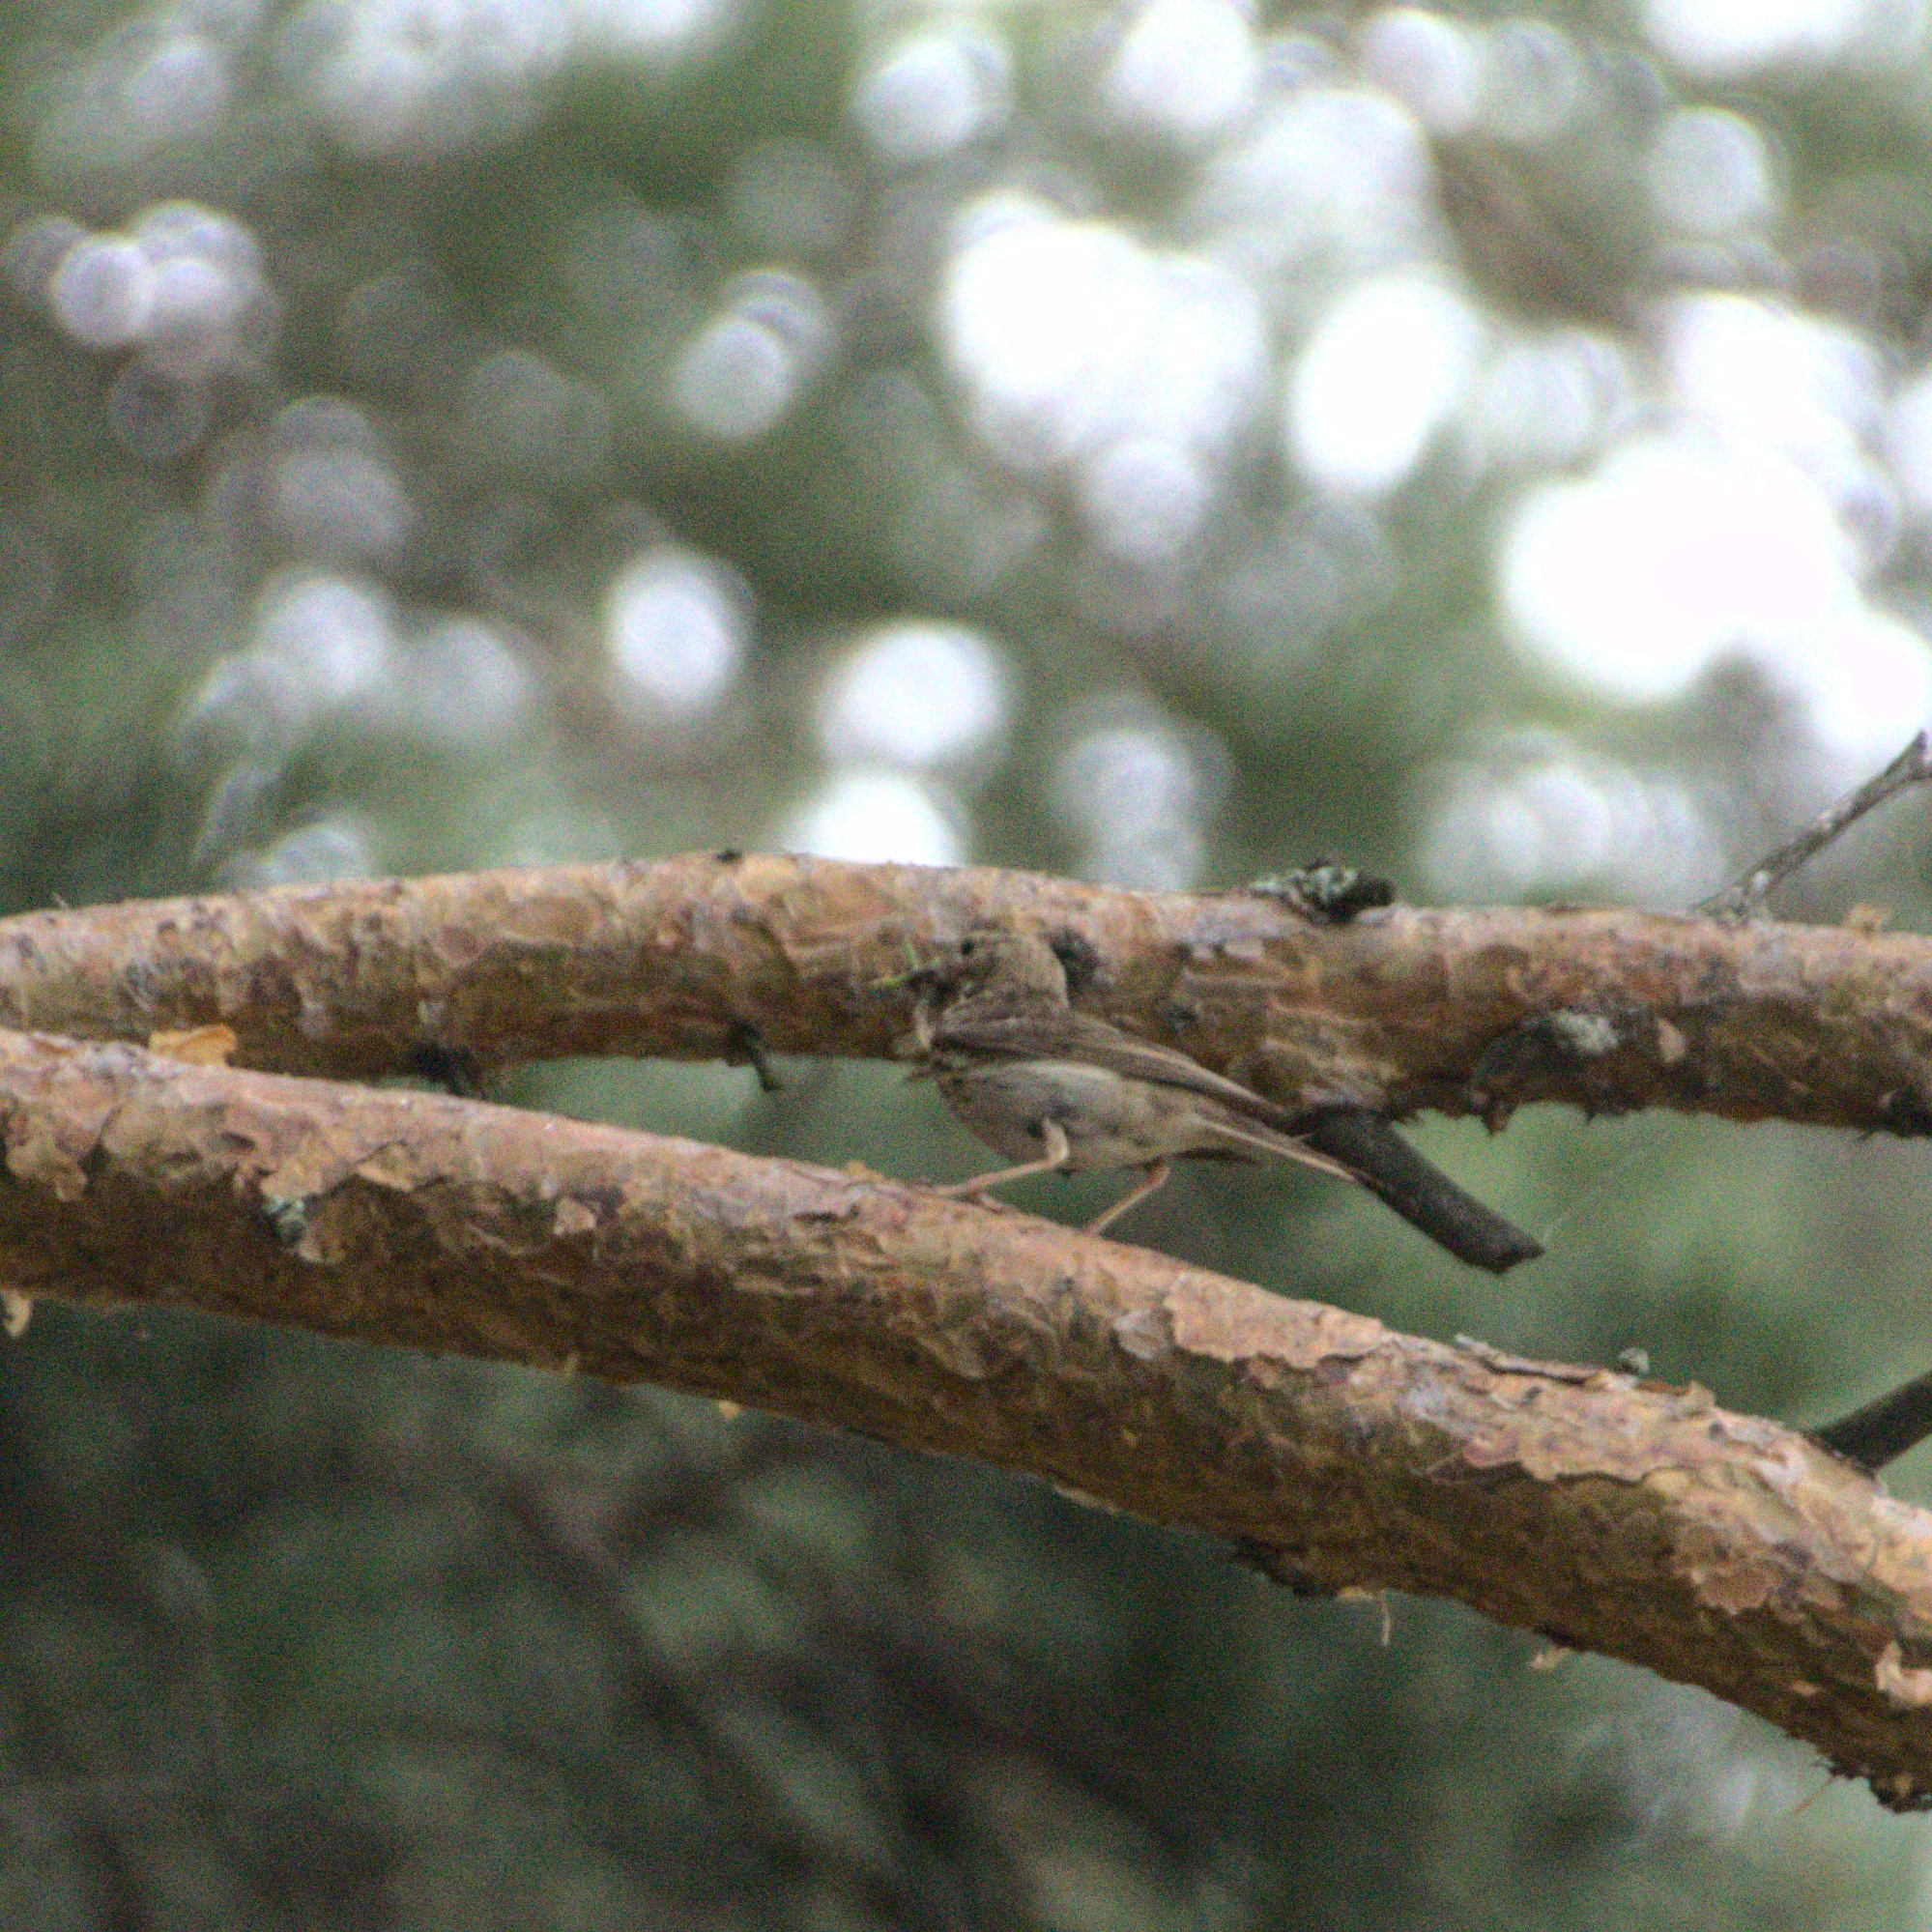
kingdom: Animalia
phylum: Chordata
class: Aves
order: Passeriformes
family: Motacillidae
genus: Anthus
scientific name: Anthus trivialis
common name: Tree pipit
